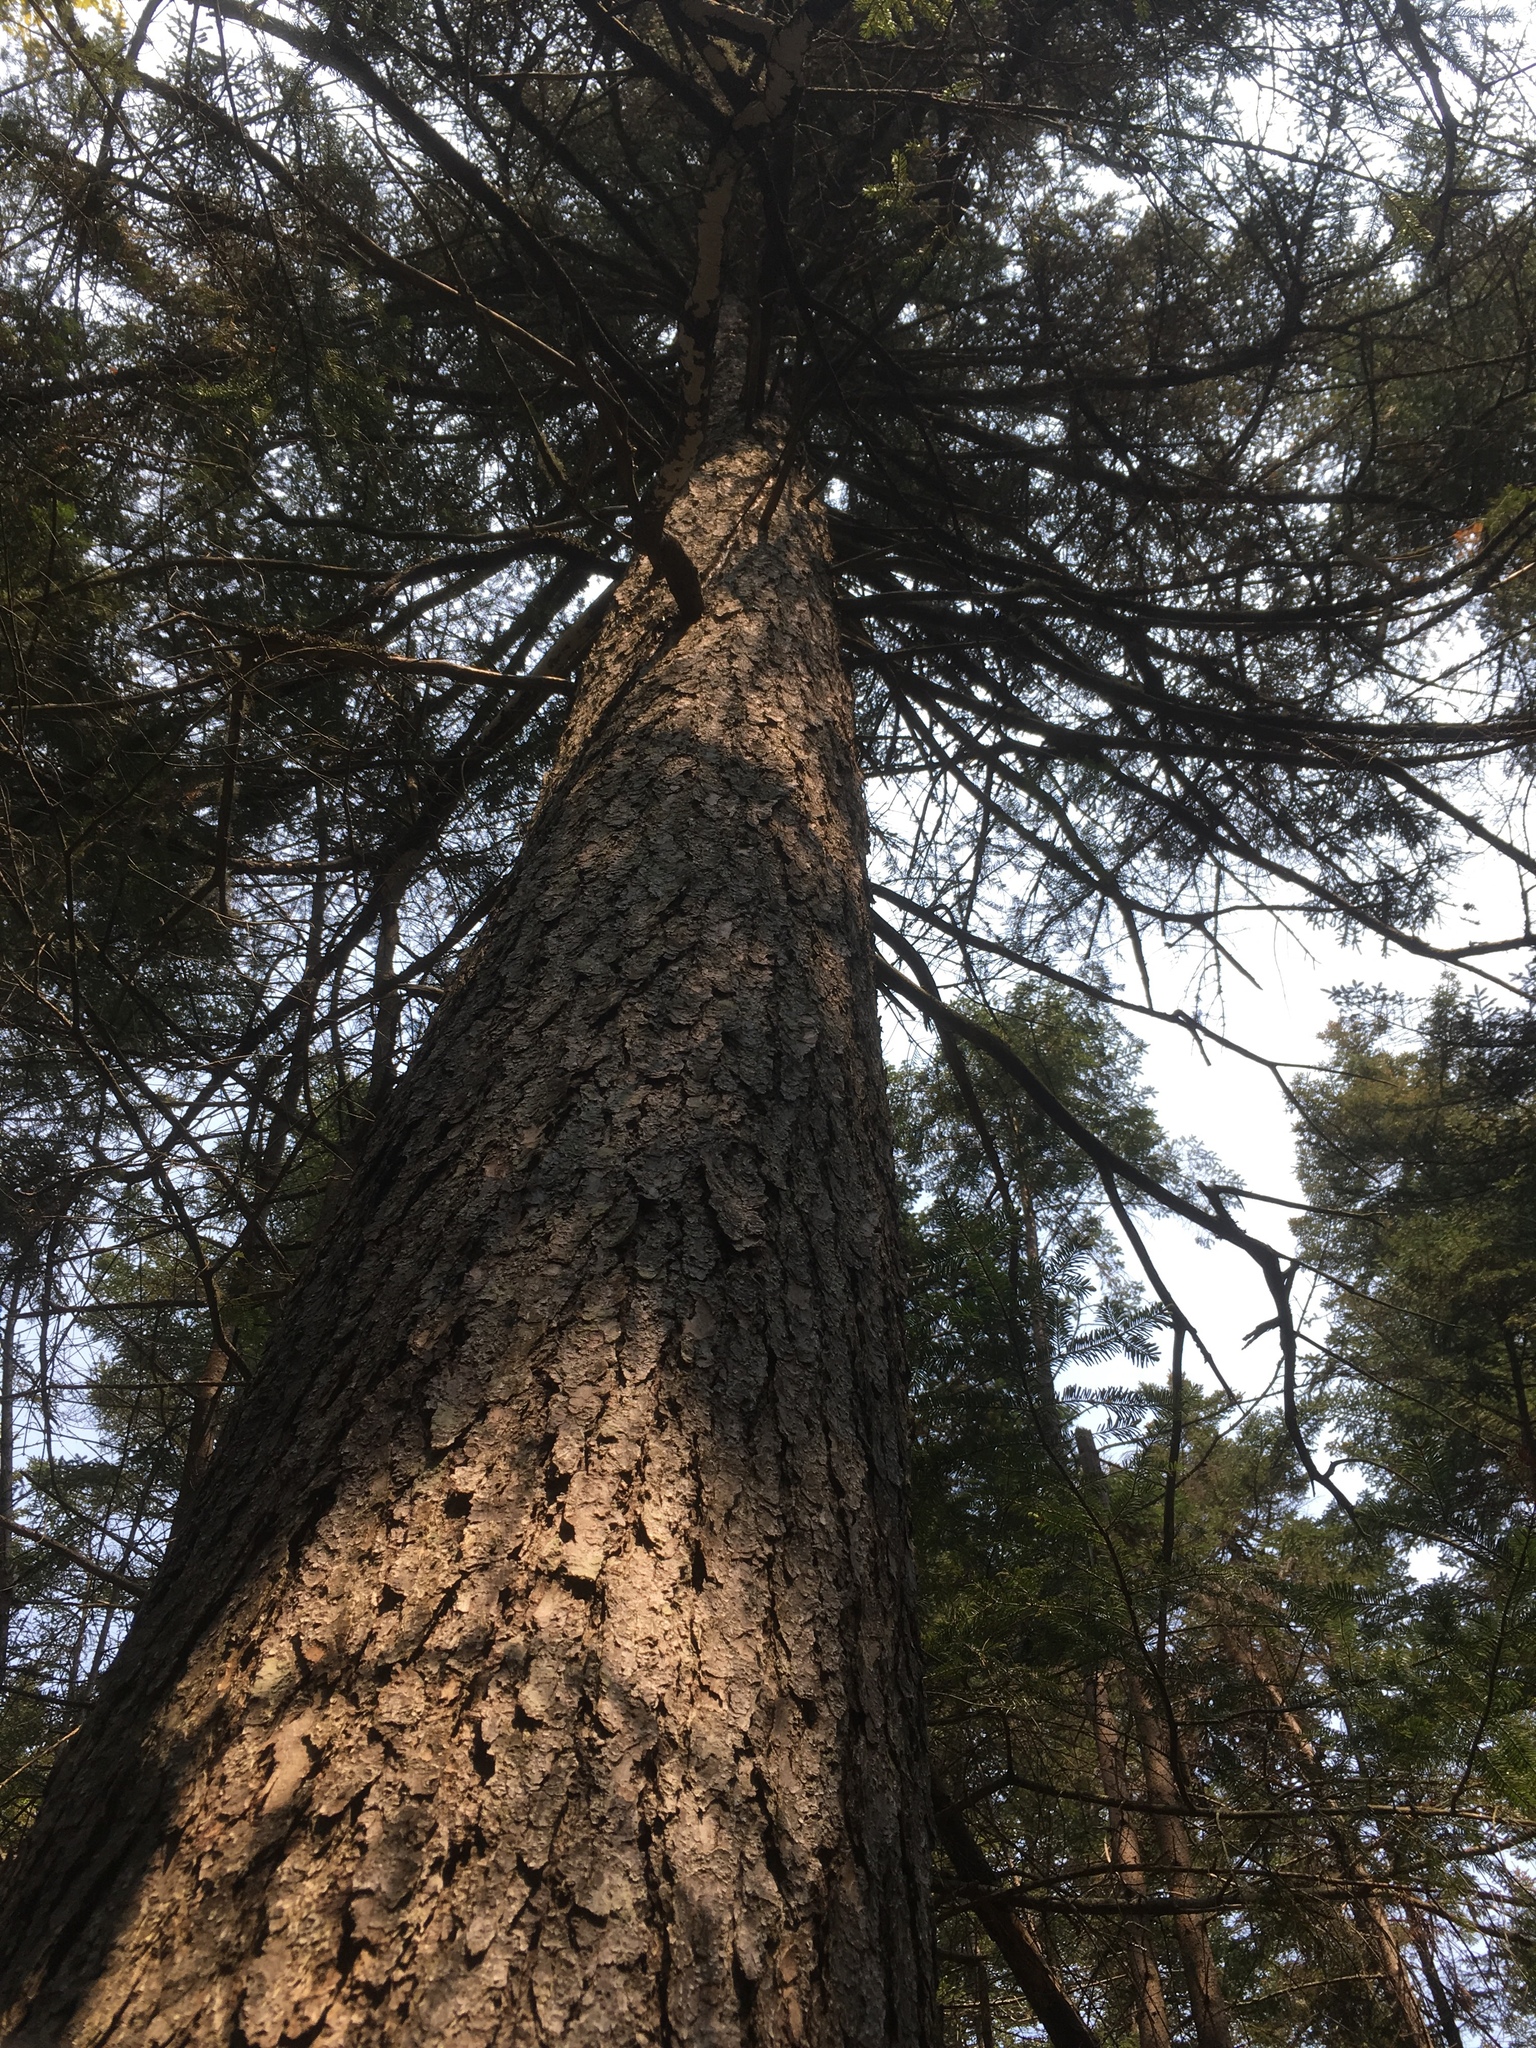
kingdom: Plantae
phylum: Tracheophyta
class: Pinopsida
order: Pinales
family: Pinaceae
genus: Picea
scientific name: Picea rubens
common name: Red spruce
